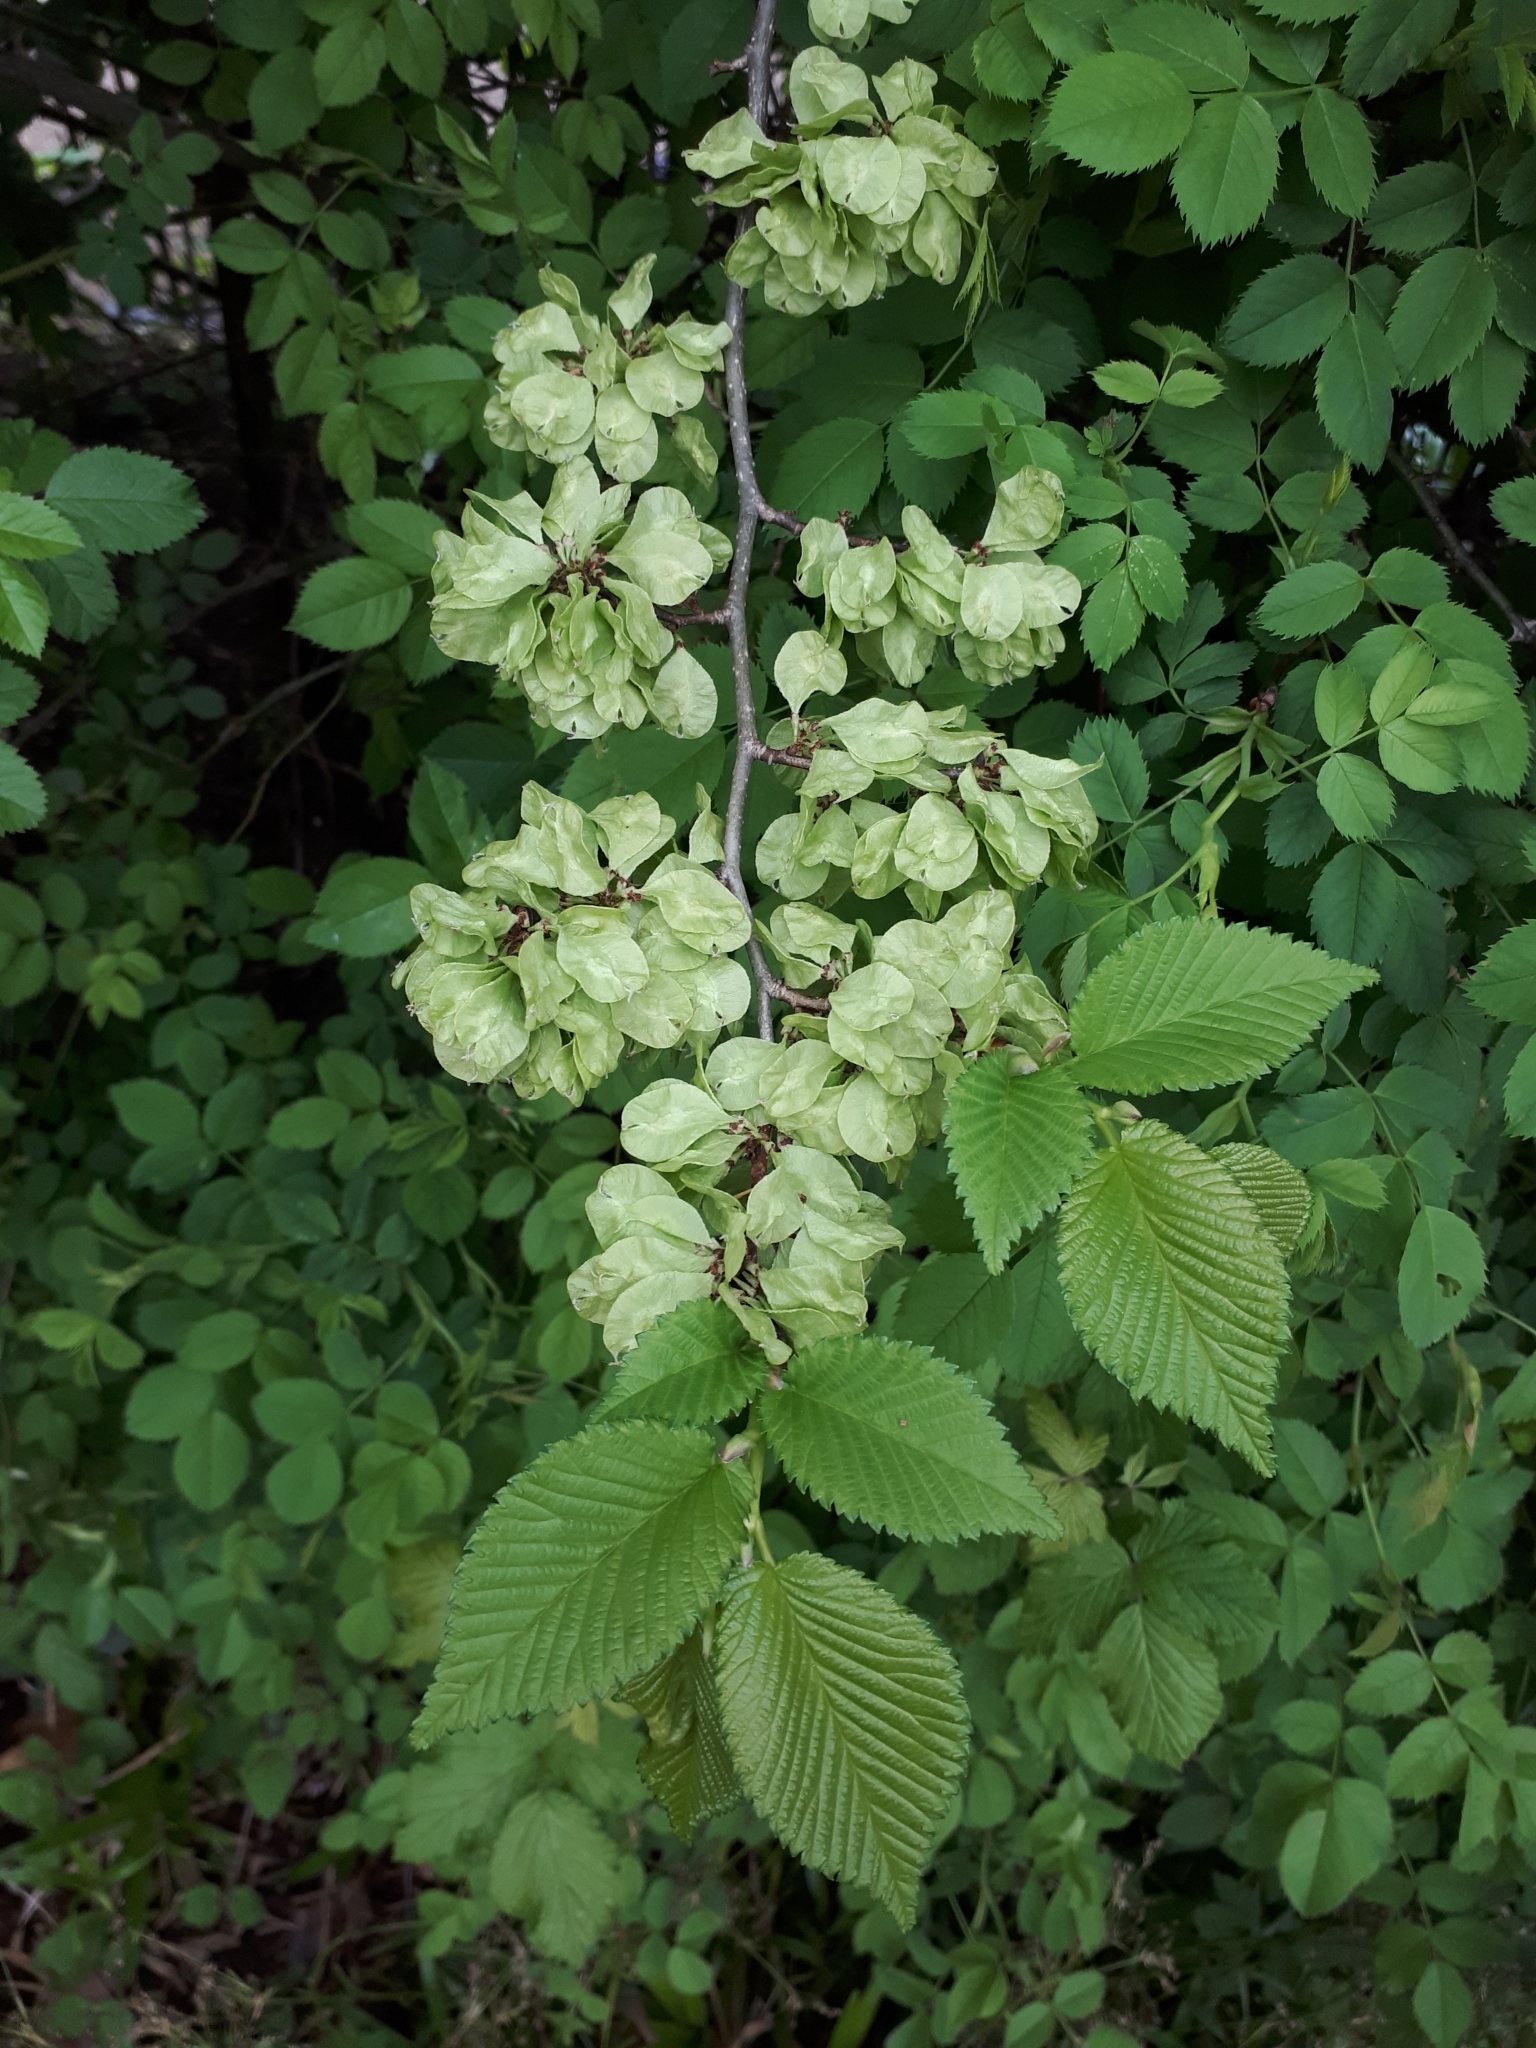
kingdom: Plantae
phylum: Tracheophyta
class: Magnoliopsida
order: Rosales
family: Ulmaceae
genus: Ulmus
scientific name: Ulmus minor
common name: Small-leaved elm
